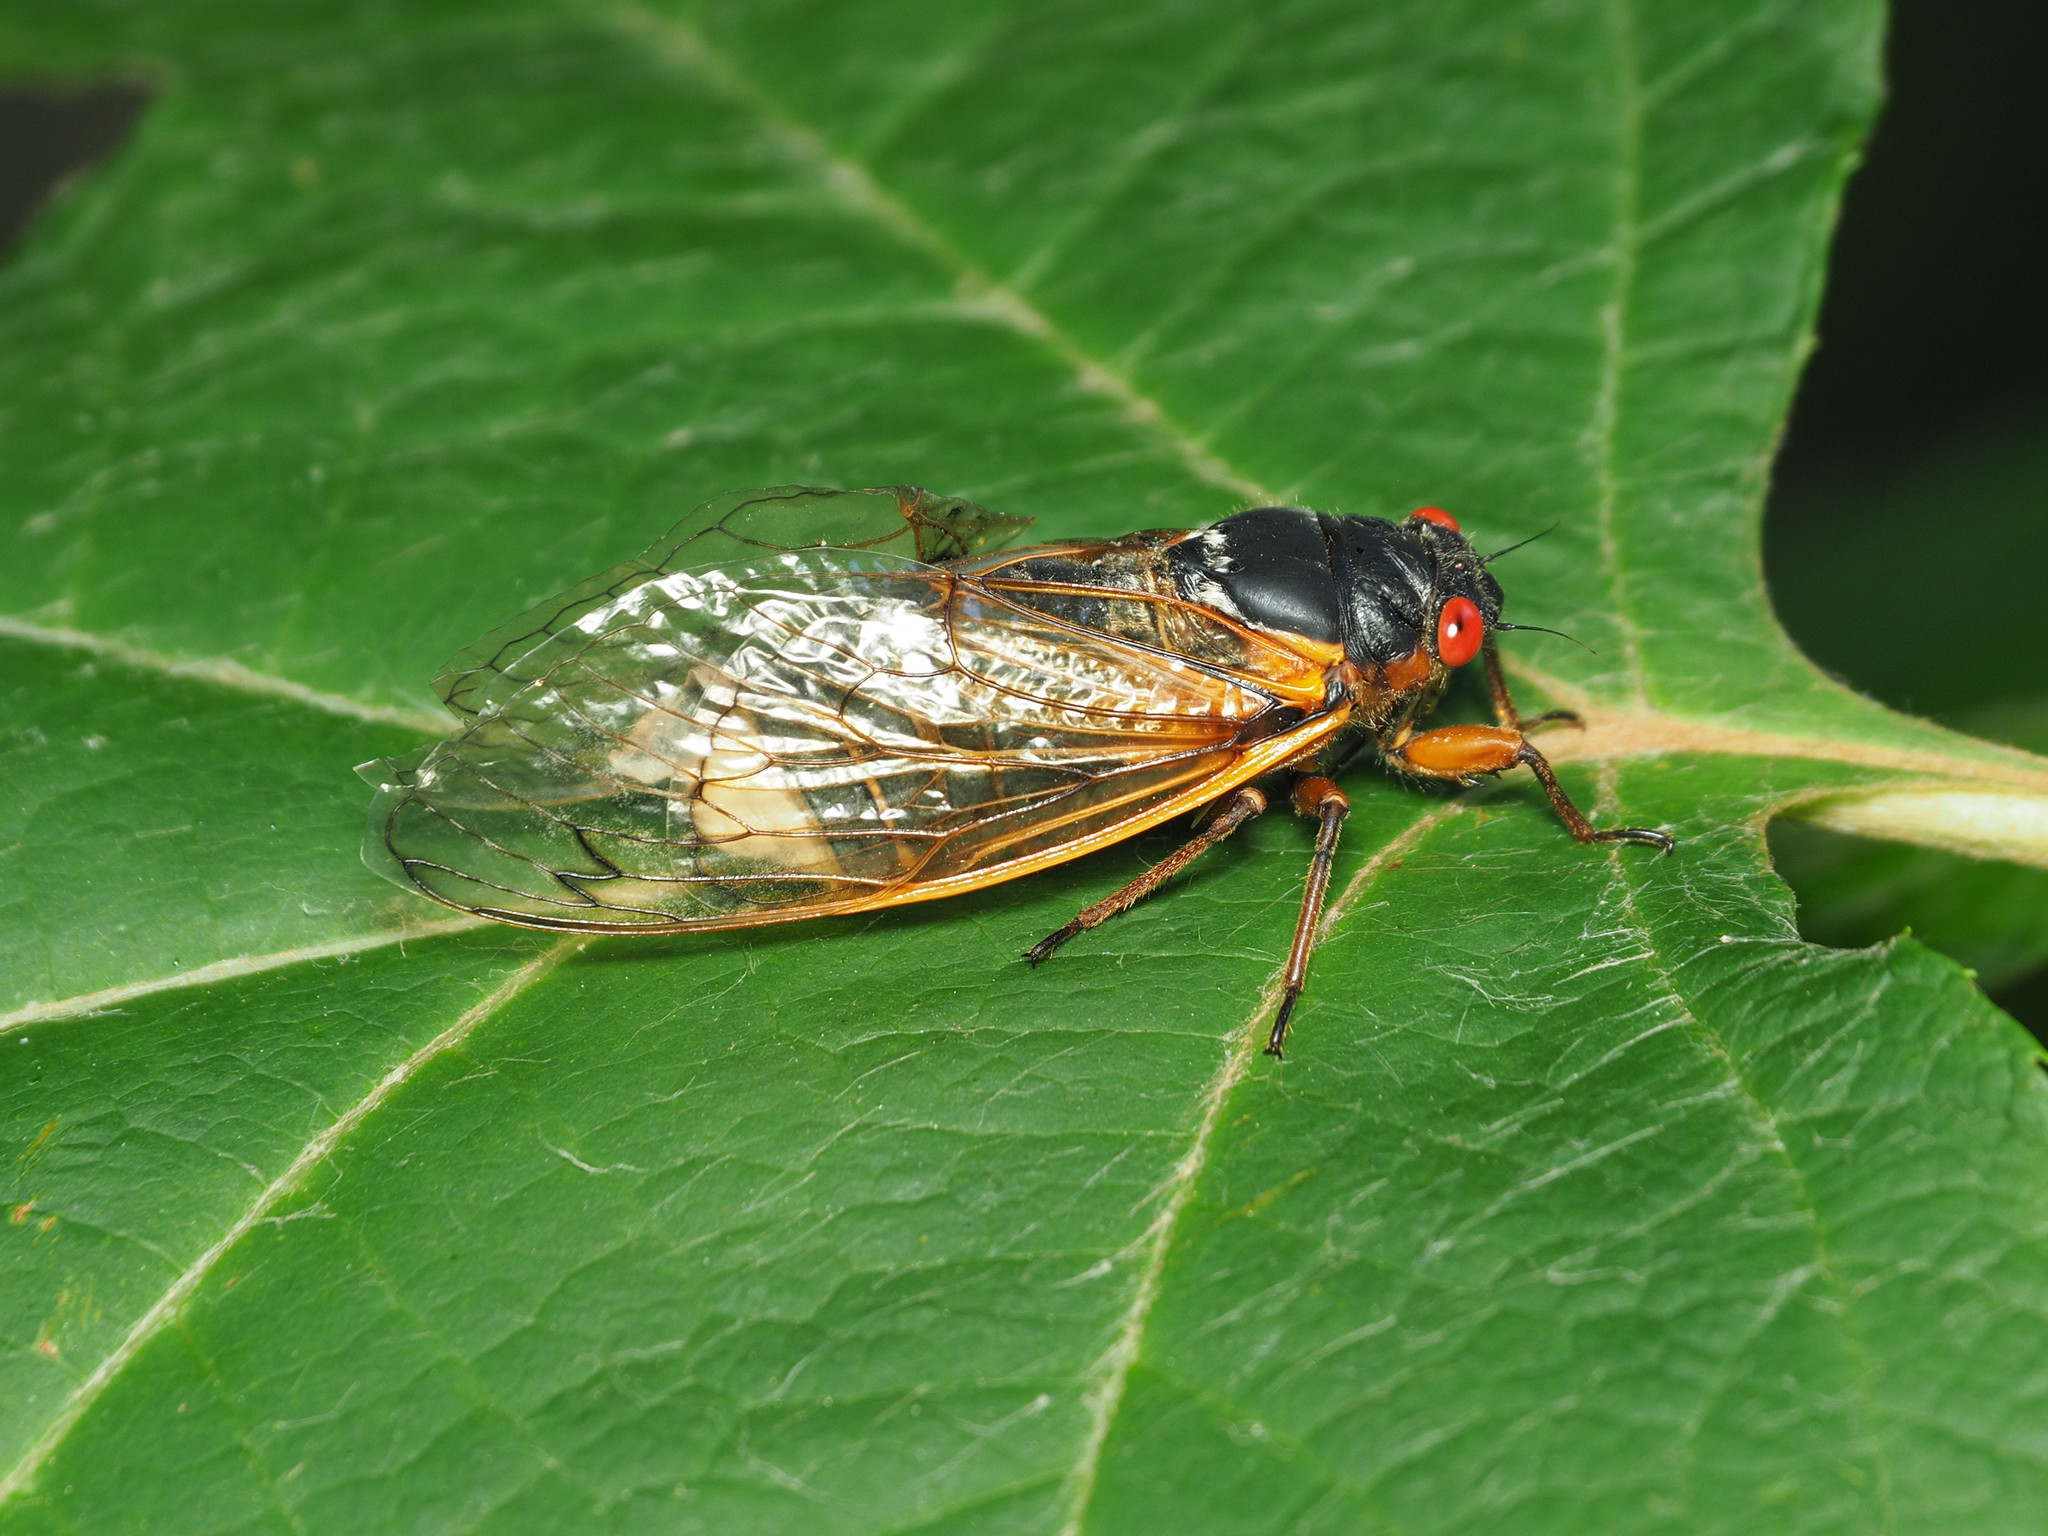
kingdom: Animalia
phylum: Arthropoda
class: Insecta
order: Hemiptera
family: Cicadidae
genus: Magicicada
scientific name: Magicicada septendecim
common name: Periodical cicada
